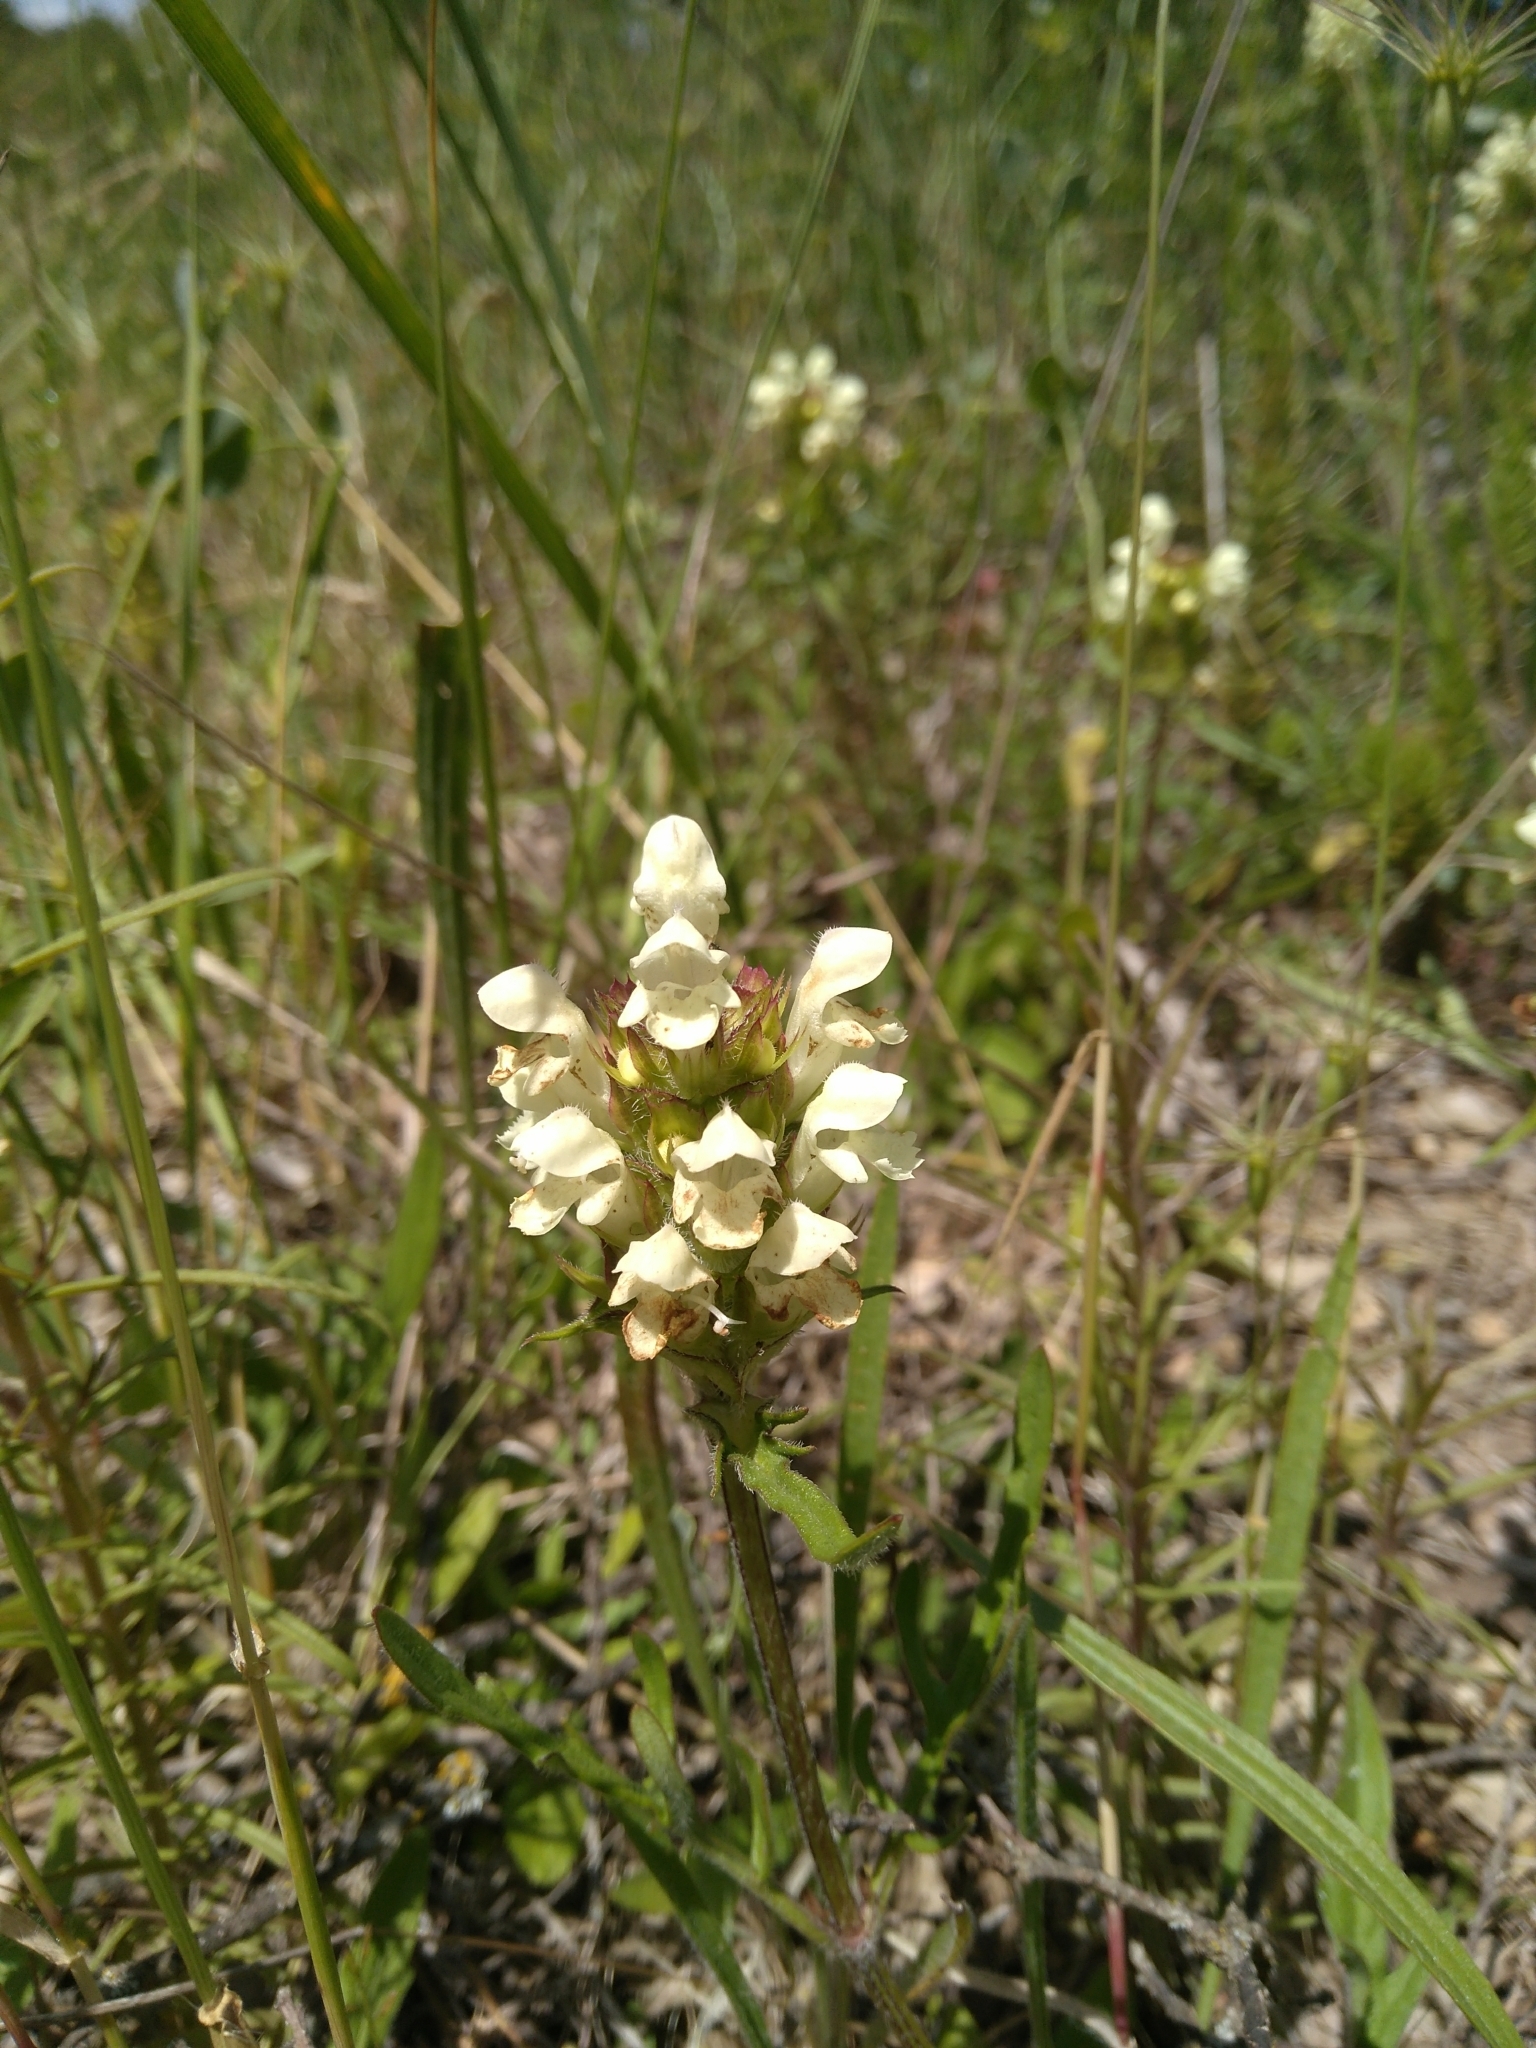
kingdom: Plantae
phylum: Tracheophyta
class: Magnoliopsida
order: Lamiales
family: Lamiaceae
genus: Prunella
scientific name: Prunella laciniata
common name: Cut-leaved selfheal
